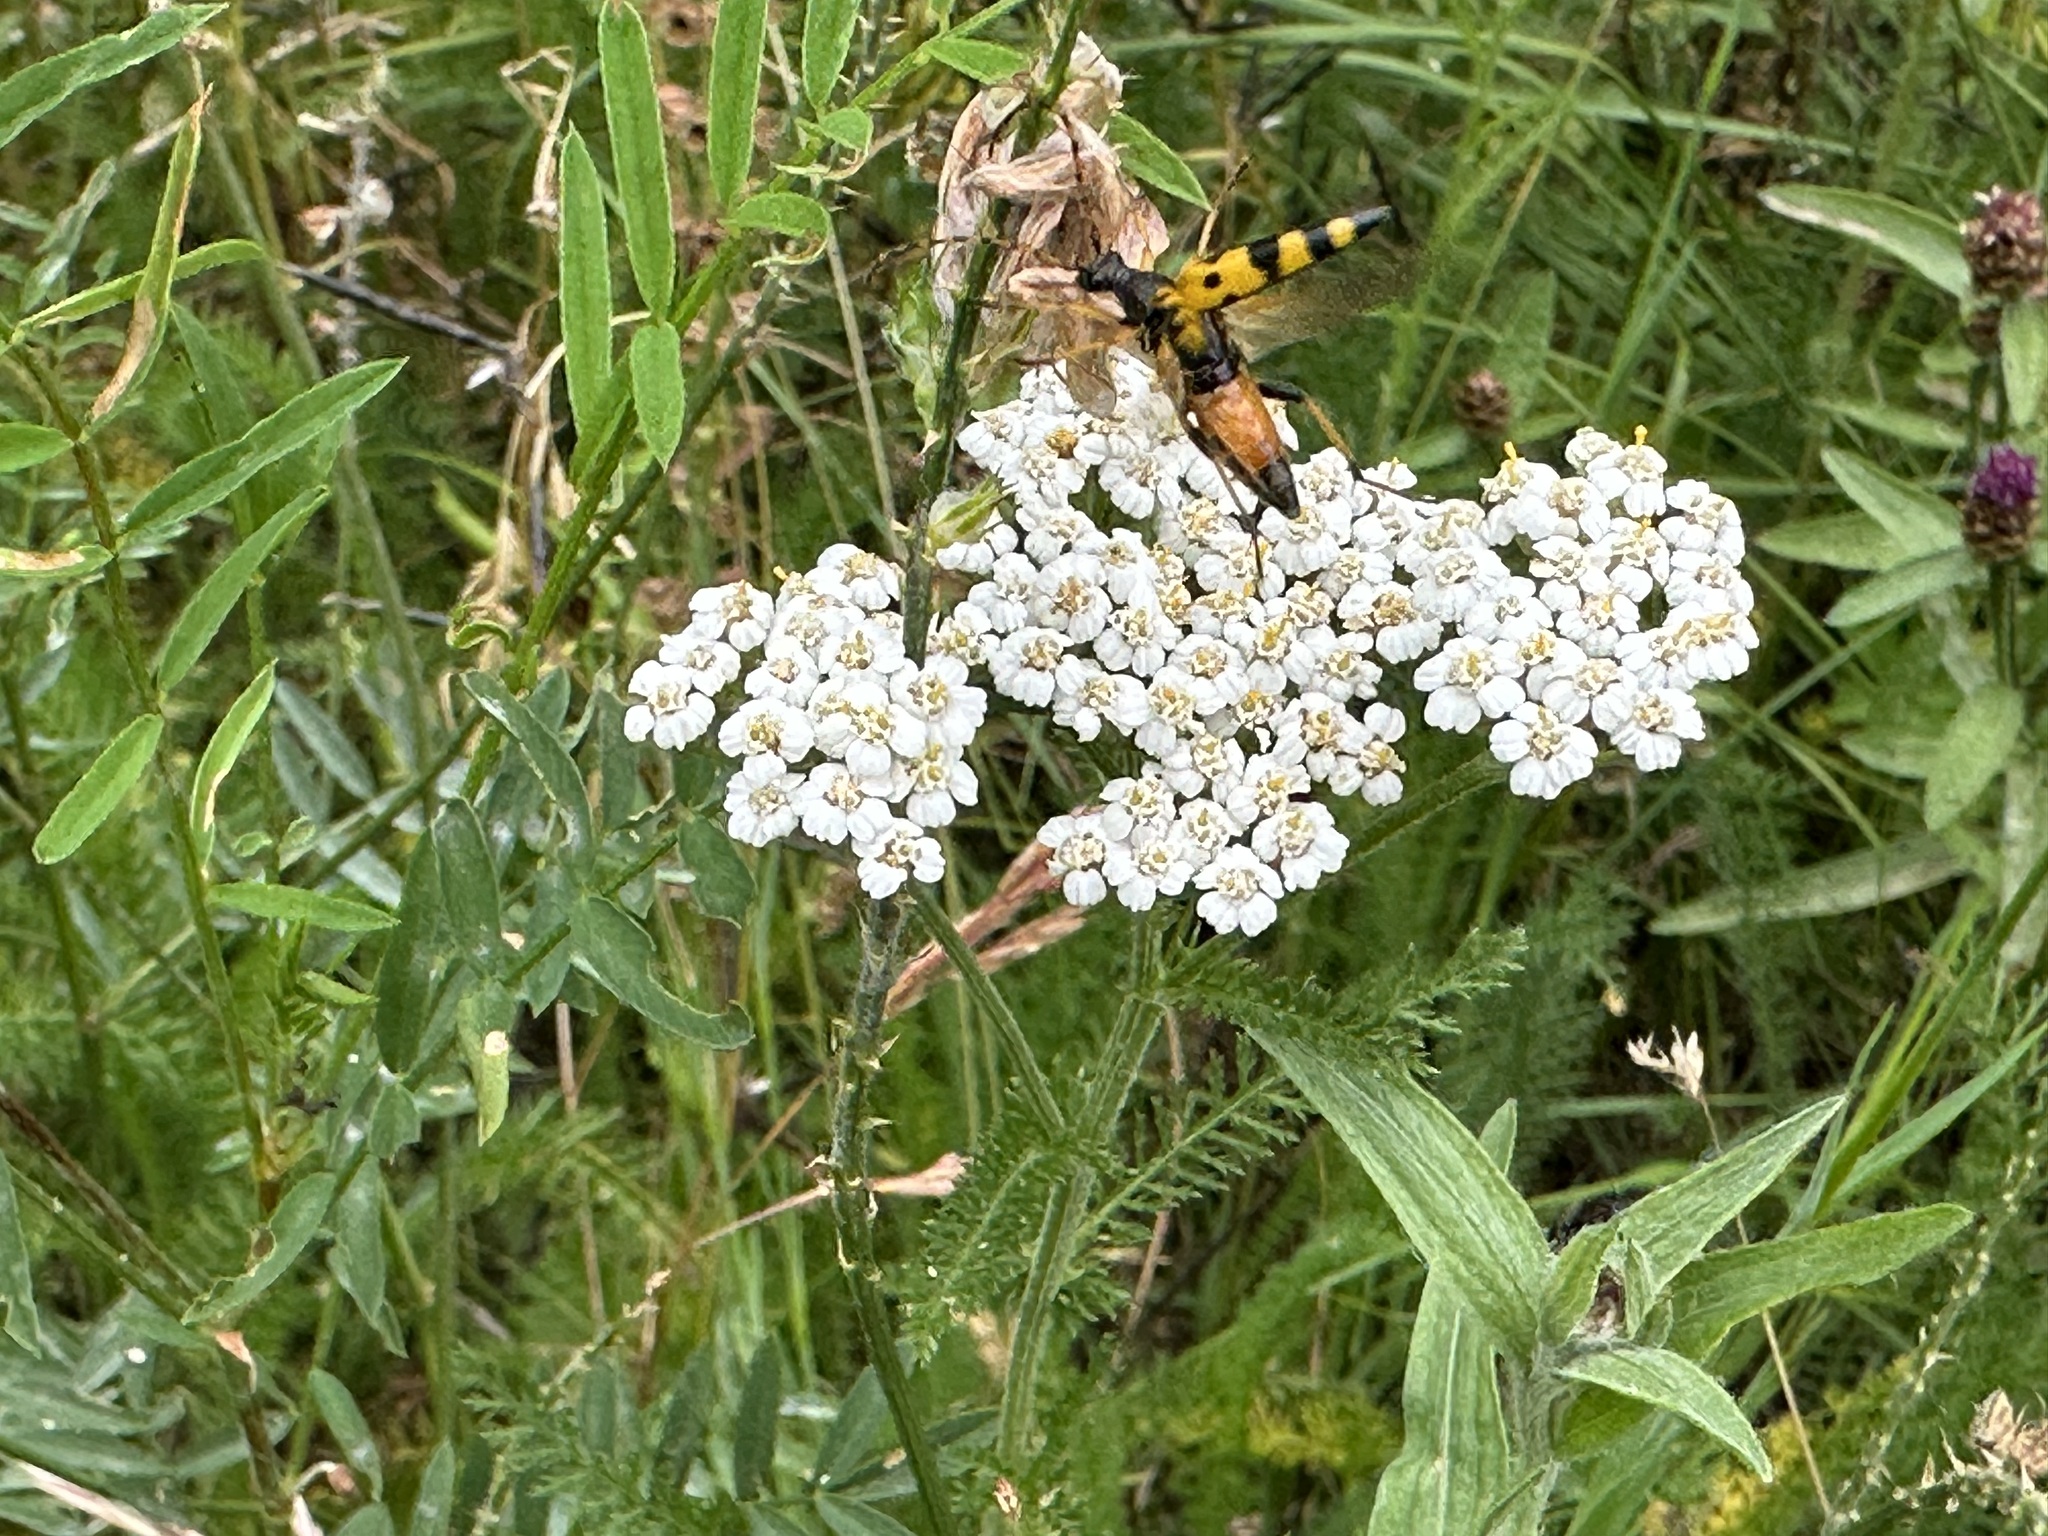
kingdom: Animalia
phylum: Arthropoda
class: Insecta
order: Coleoptera
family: Cerambycidae
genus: Rutpela
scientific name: Rutpela maculata
